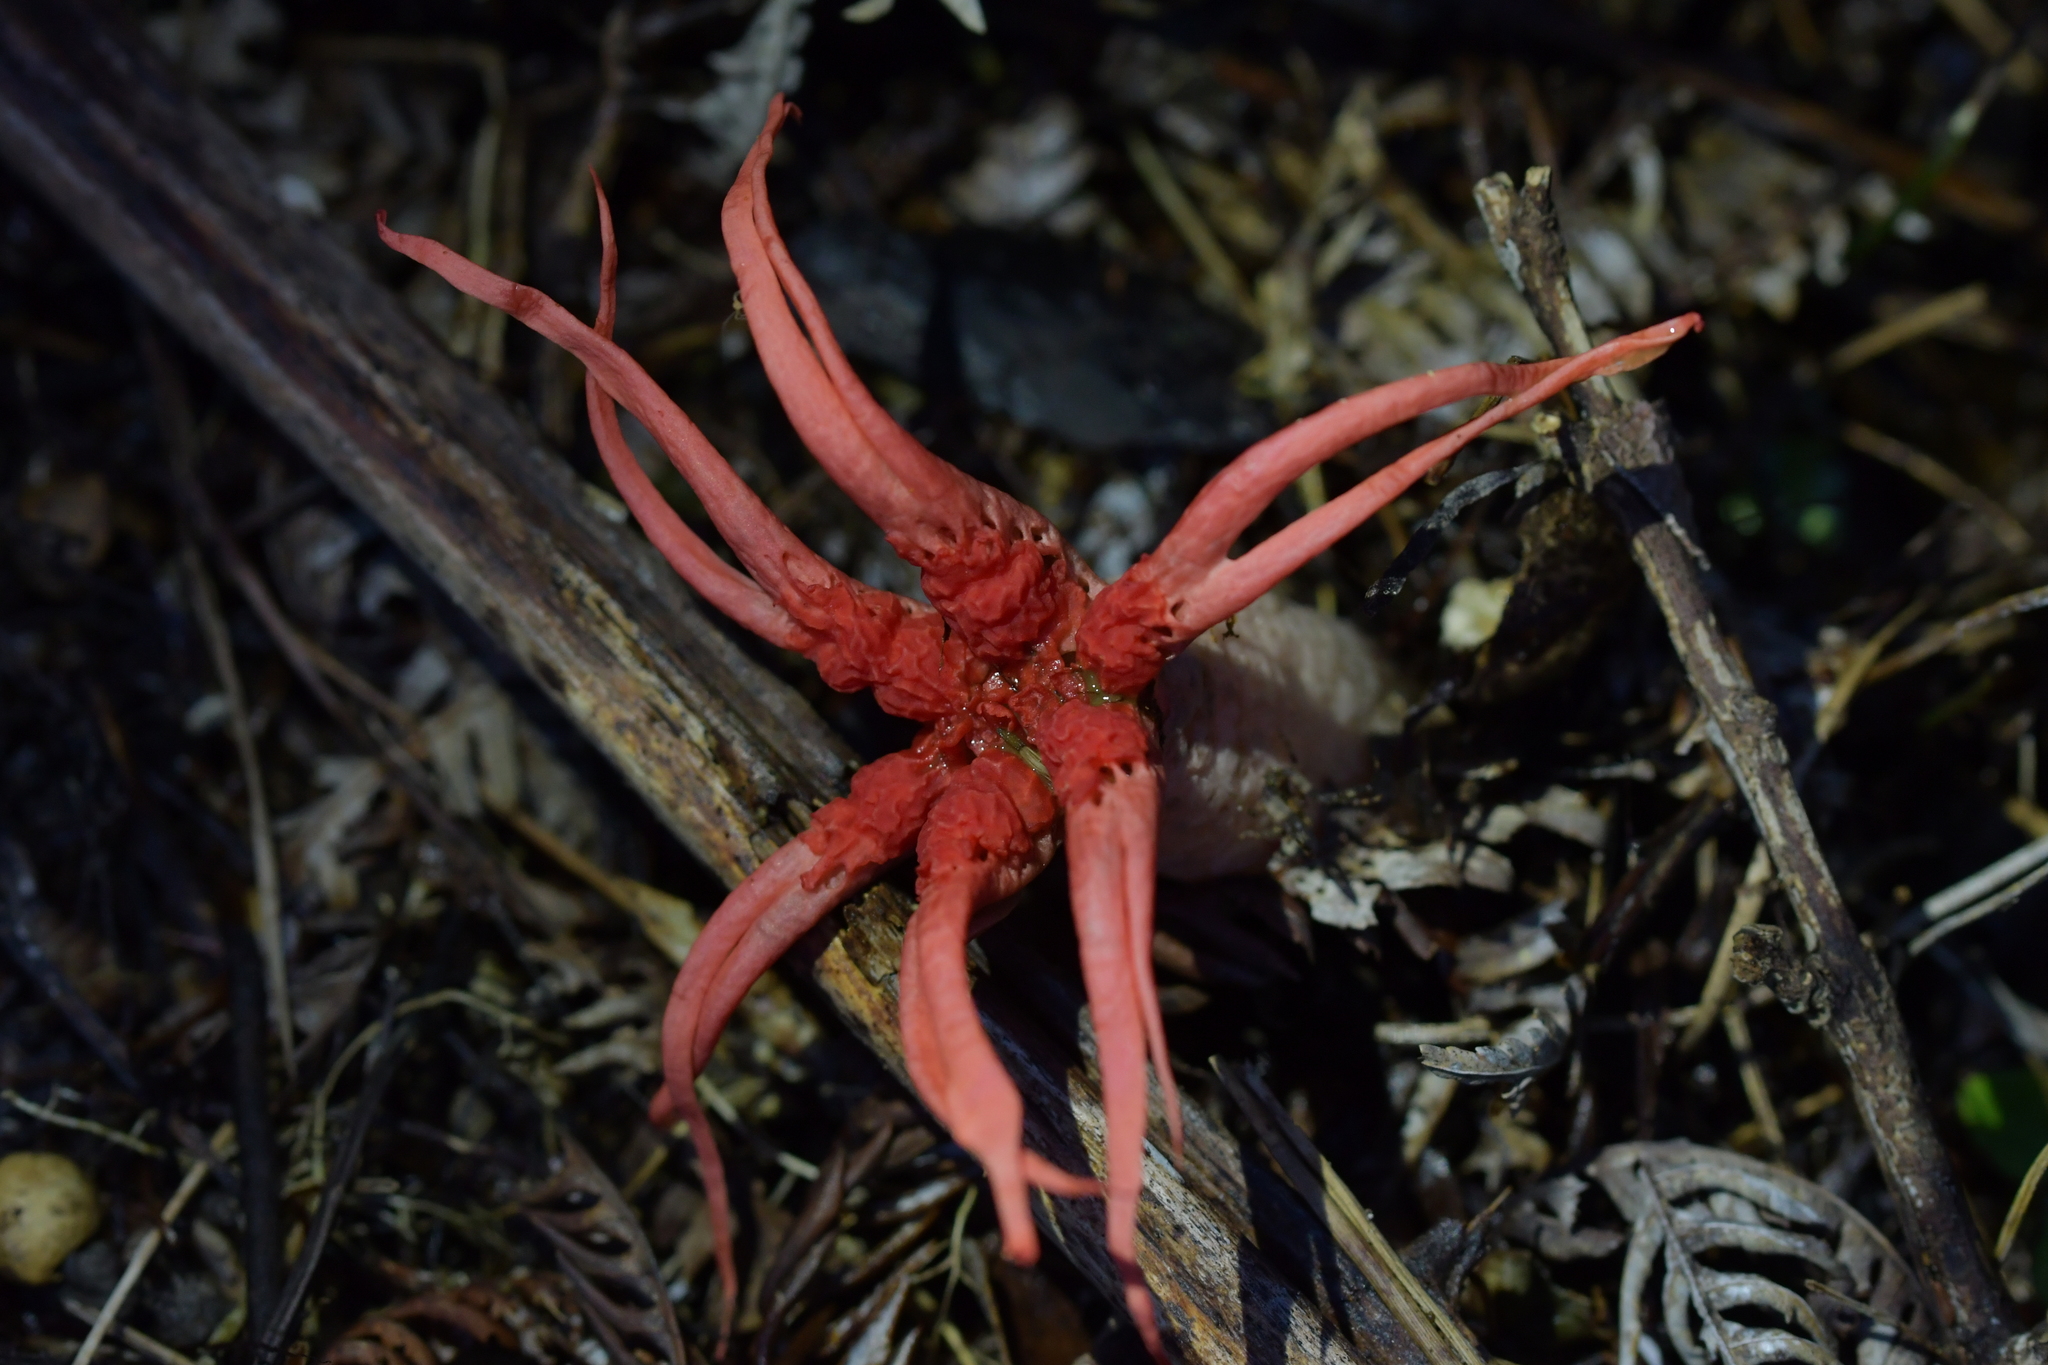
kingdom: Fungi
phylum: Basidiomycota
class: Agaricomycetes
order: Phallales
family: Phallaceae
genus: Aseroe
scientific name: Aseroe rubra
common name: Starfish fungus
